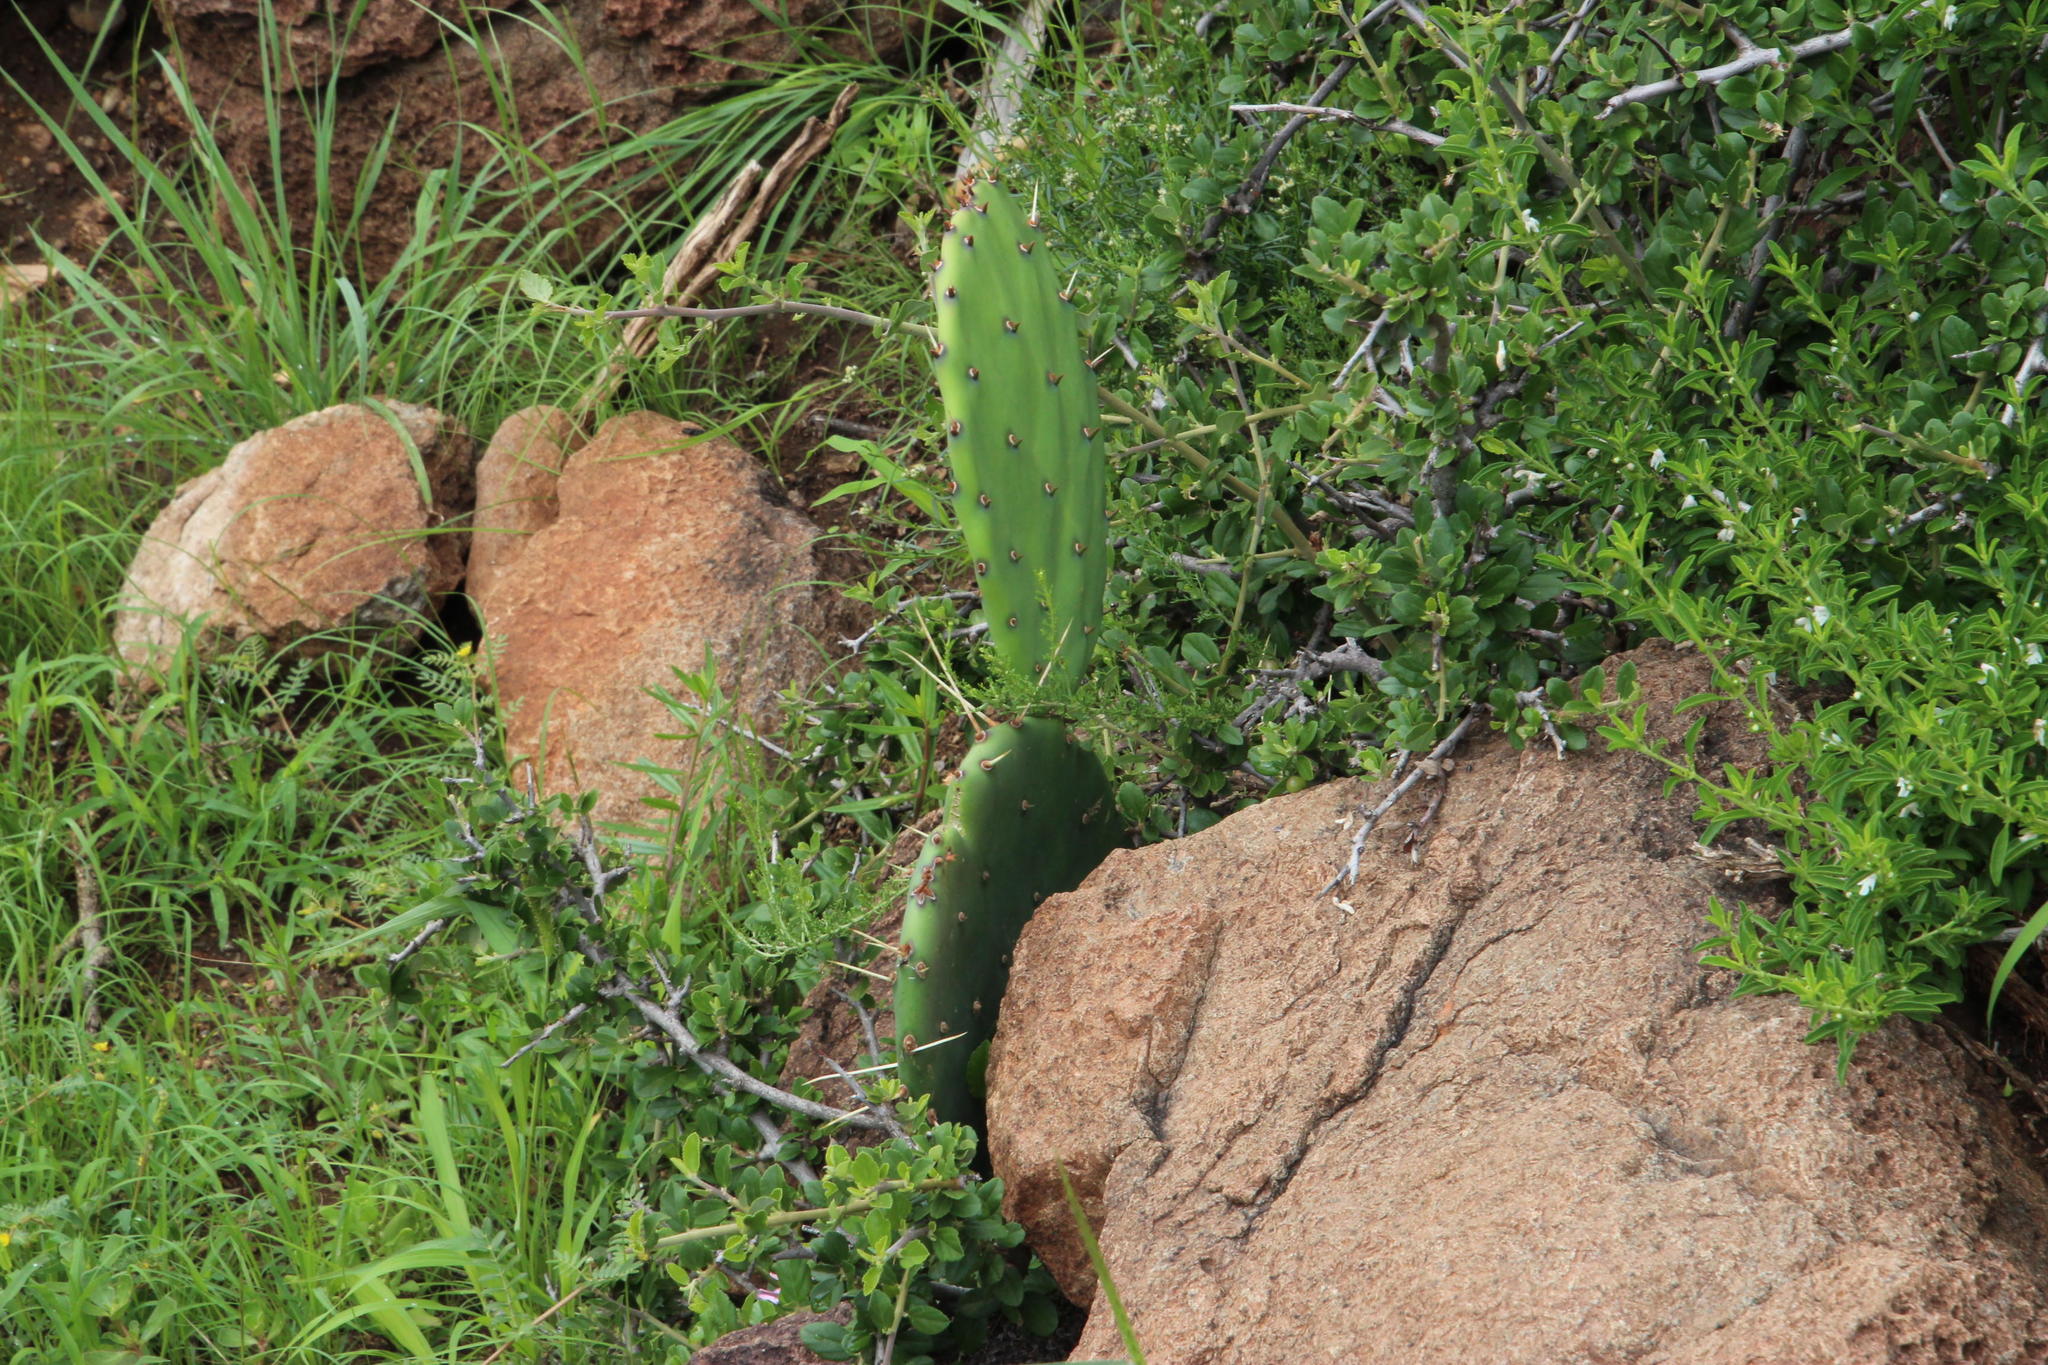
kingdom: Plantae
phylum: Tracheophyta
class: Magnoliopsida
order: Caryophyllales
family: Cactaceae
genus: Opuntia
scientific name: Opuntia ficus-indica
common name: Barbary fig
